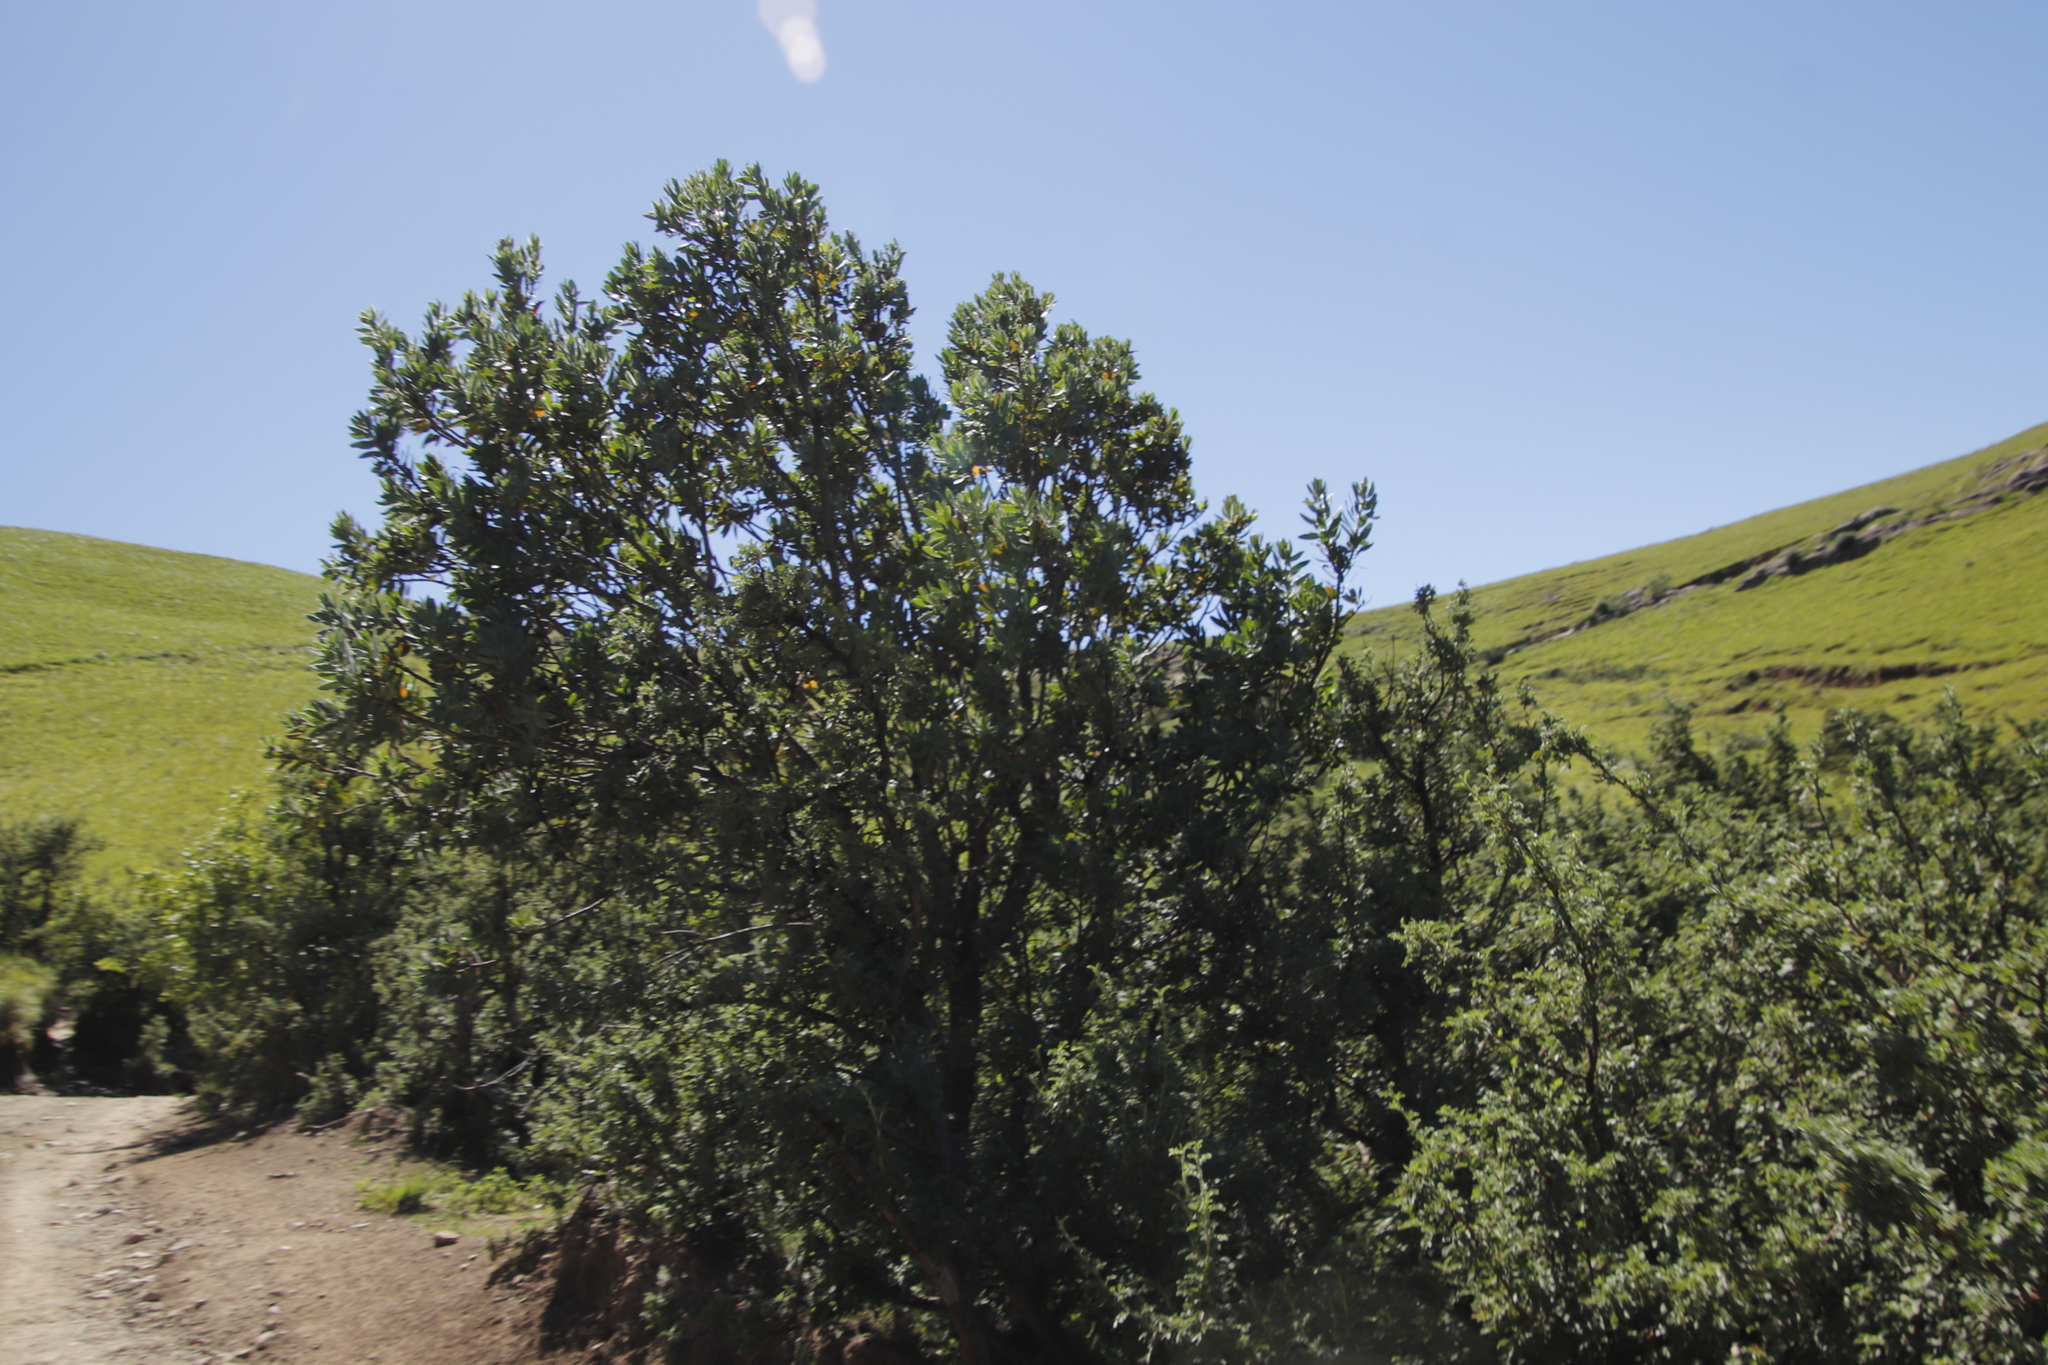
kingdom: Plantae
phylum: Tracheophyta
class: Magnoliopsida
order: Proteales
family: Proteaceae
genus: Protea
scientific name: Protea subvestita
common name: Lip-flower sugarbush
